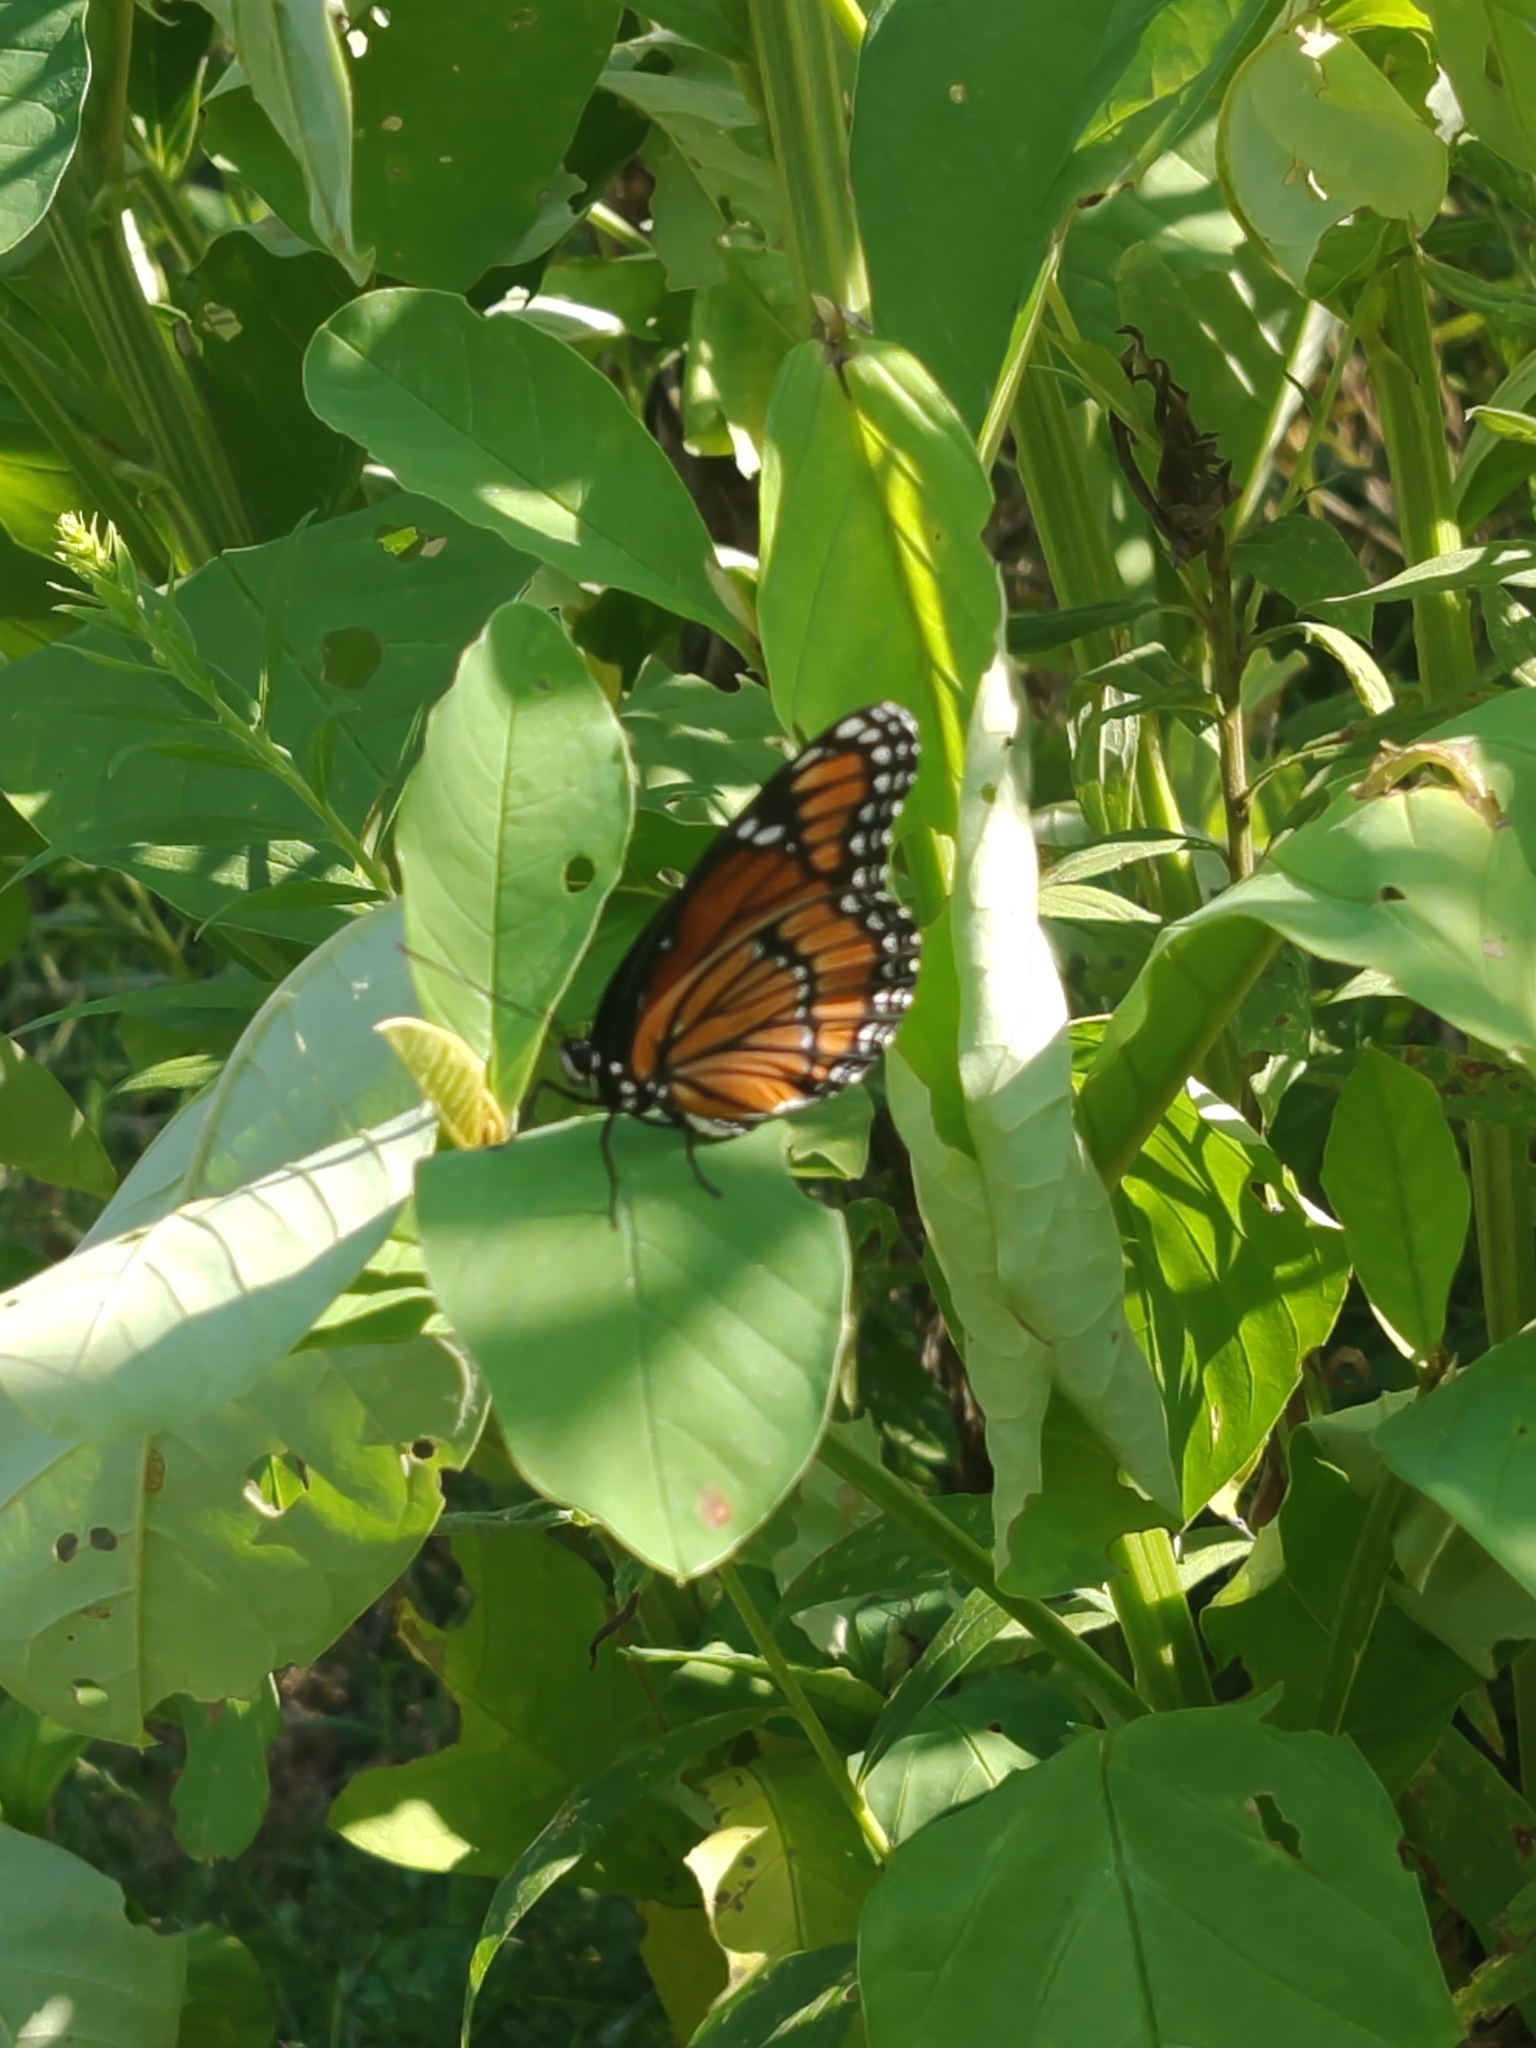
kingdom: Animalia
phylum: Arthropoda
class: Insecta
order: Lepidoptera
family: Nymphalidae
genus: Limenitis
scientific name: Limenitis archippus
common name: Viceroy
